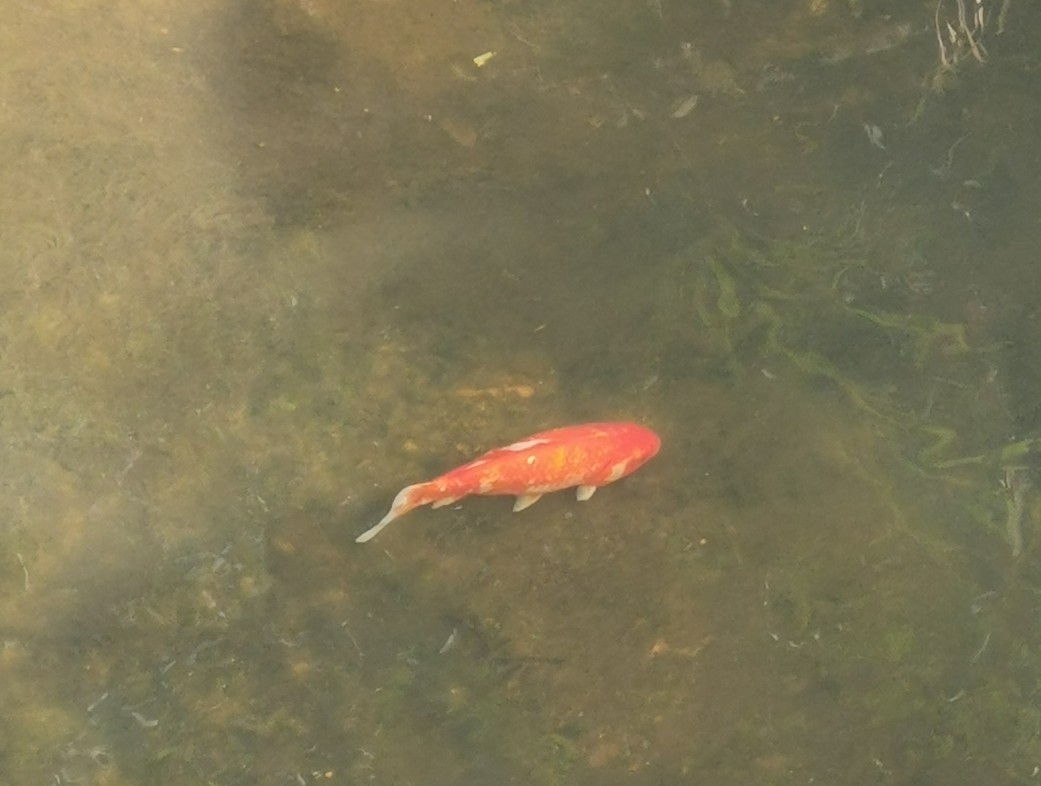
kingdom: Animalia
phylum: Chordata
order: Cypriniformes
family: Cyprinidae
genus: Carassius
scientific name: Carassius auratus
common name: Goldfish
